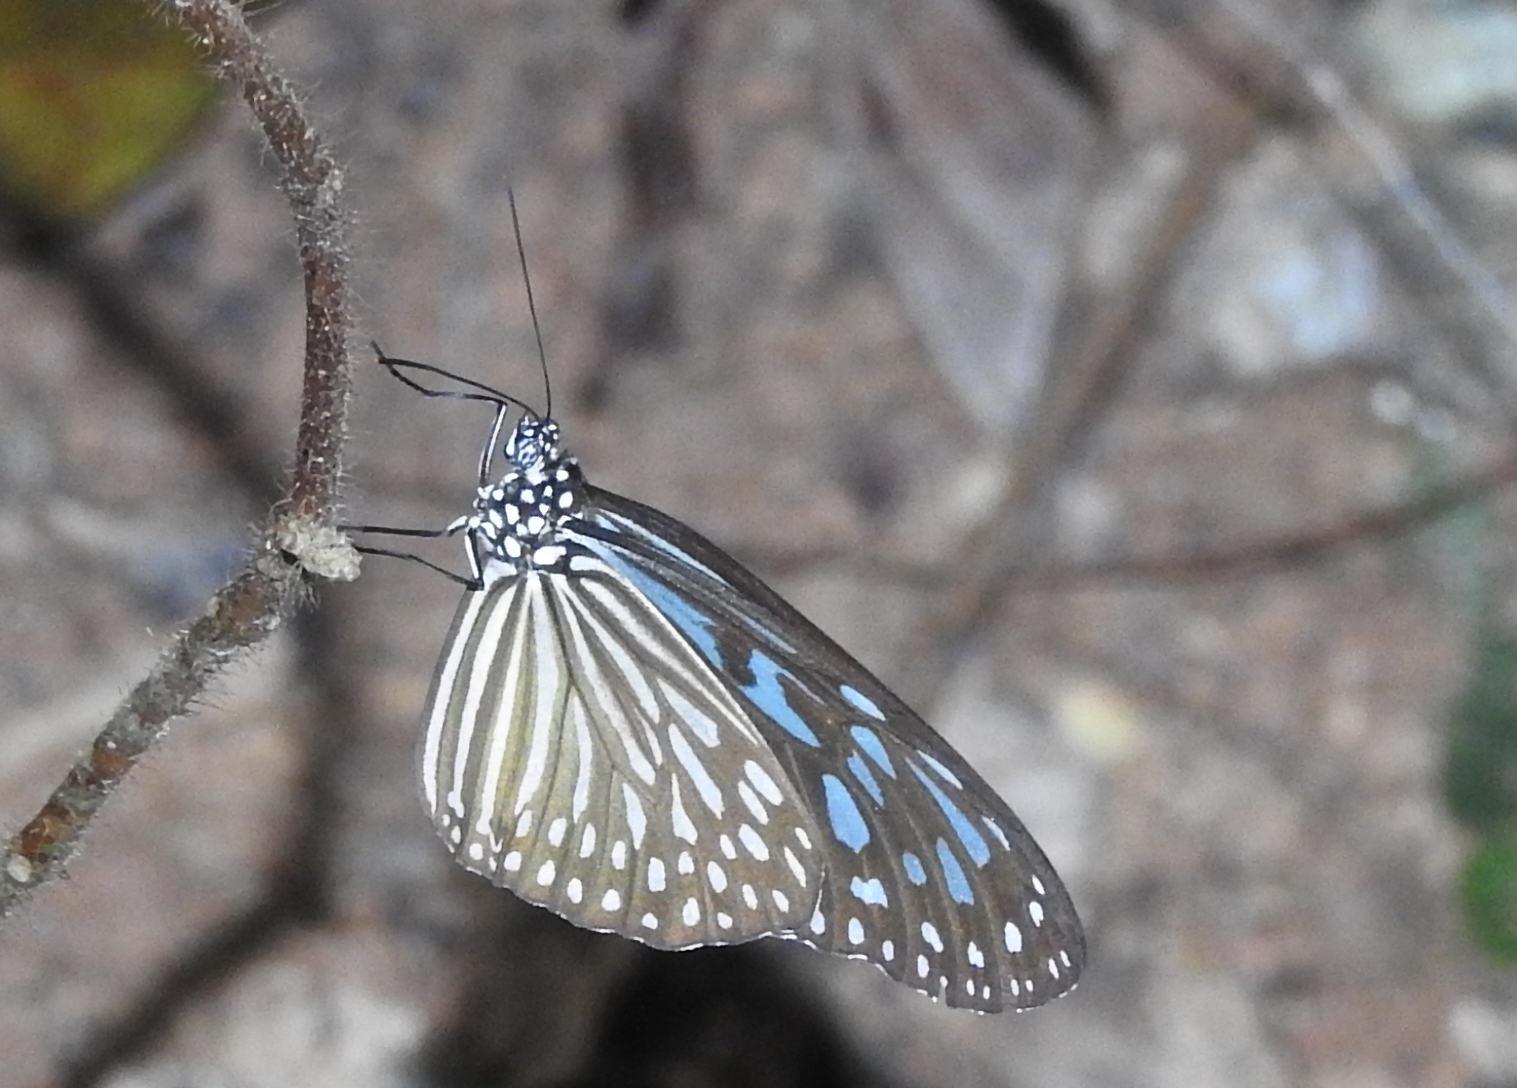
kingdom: Animalia
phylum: Arthropoda
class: Insecta
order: Lepidoptera
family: Nymphalidae
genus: Ideopsis
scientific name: Ideopsis vulgaris
